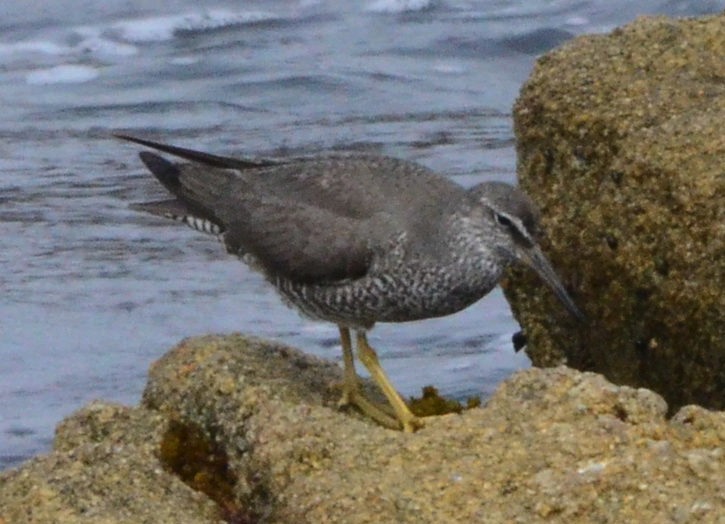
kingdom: Animalia
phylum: Chordata
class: Aves
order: Charadriiformes
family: Scolopacidae
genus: Tringa
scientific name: Tringa incana
